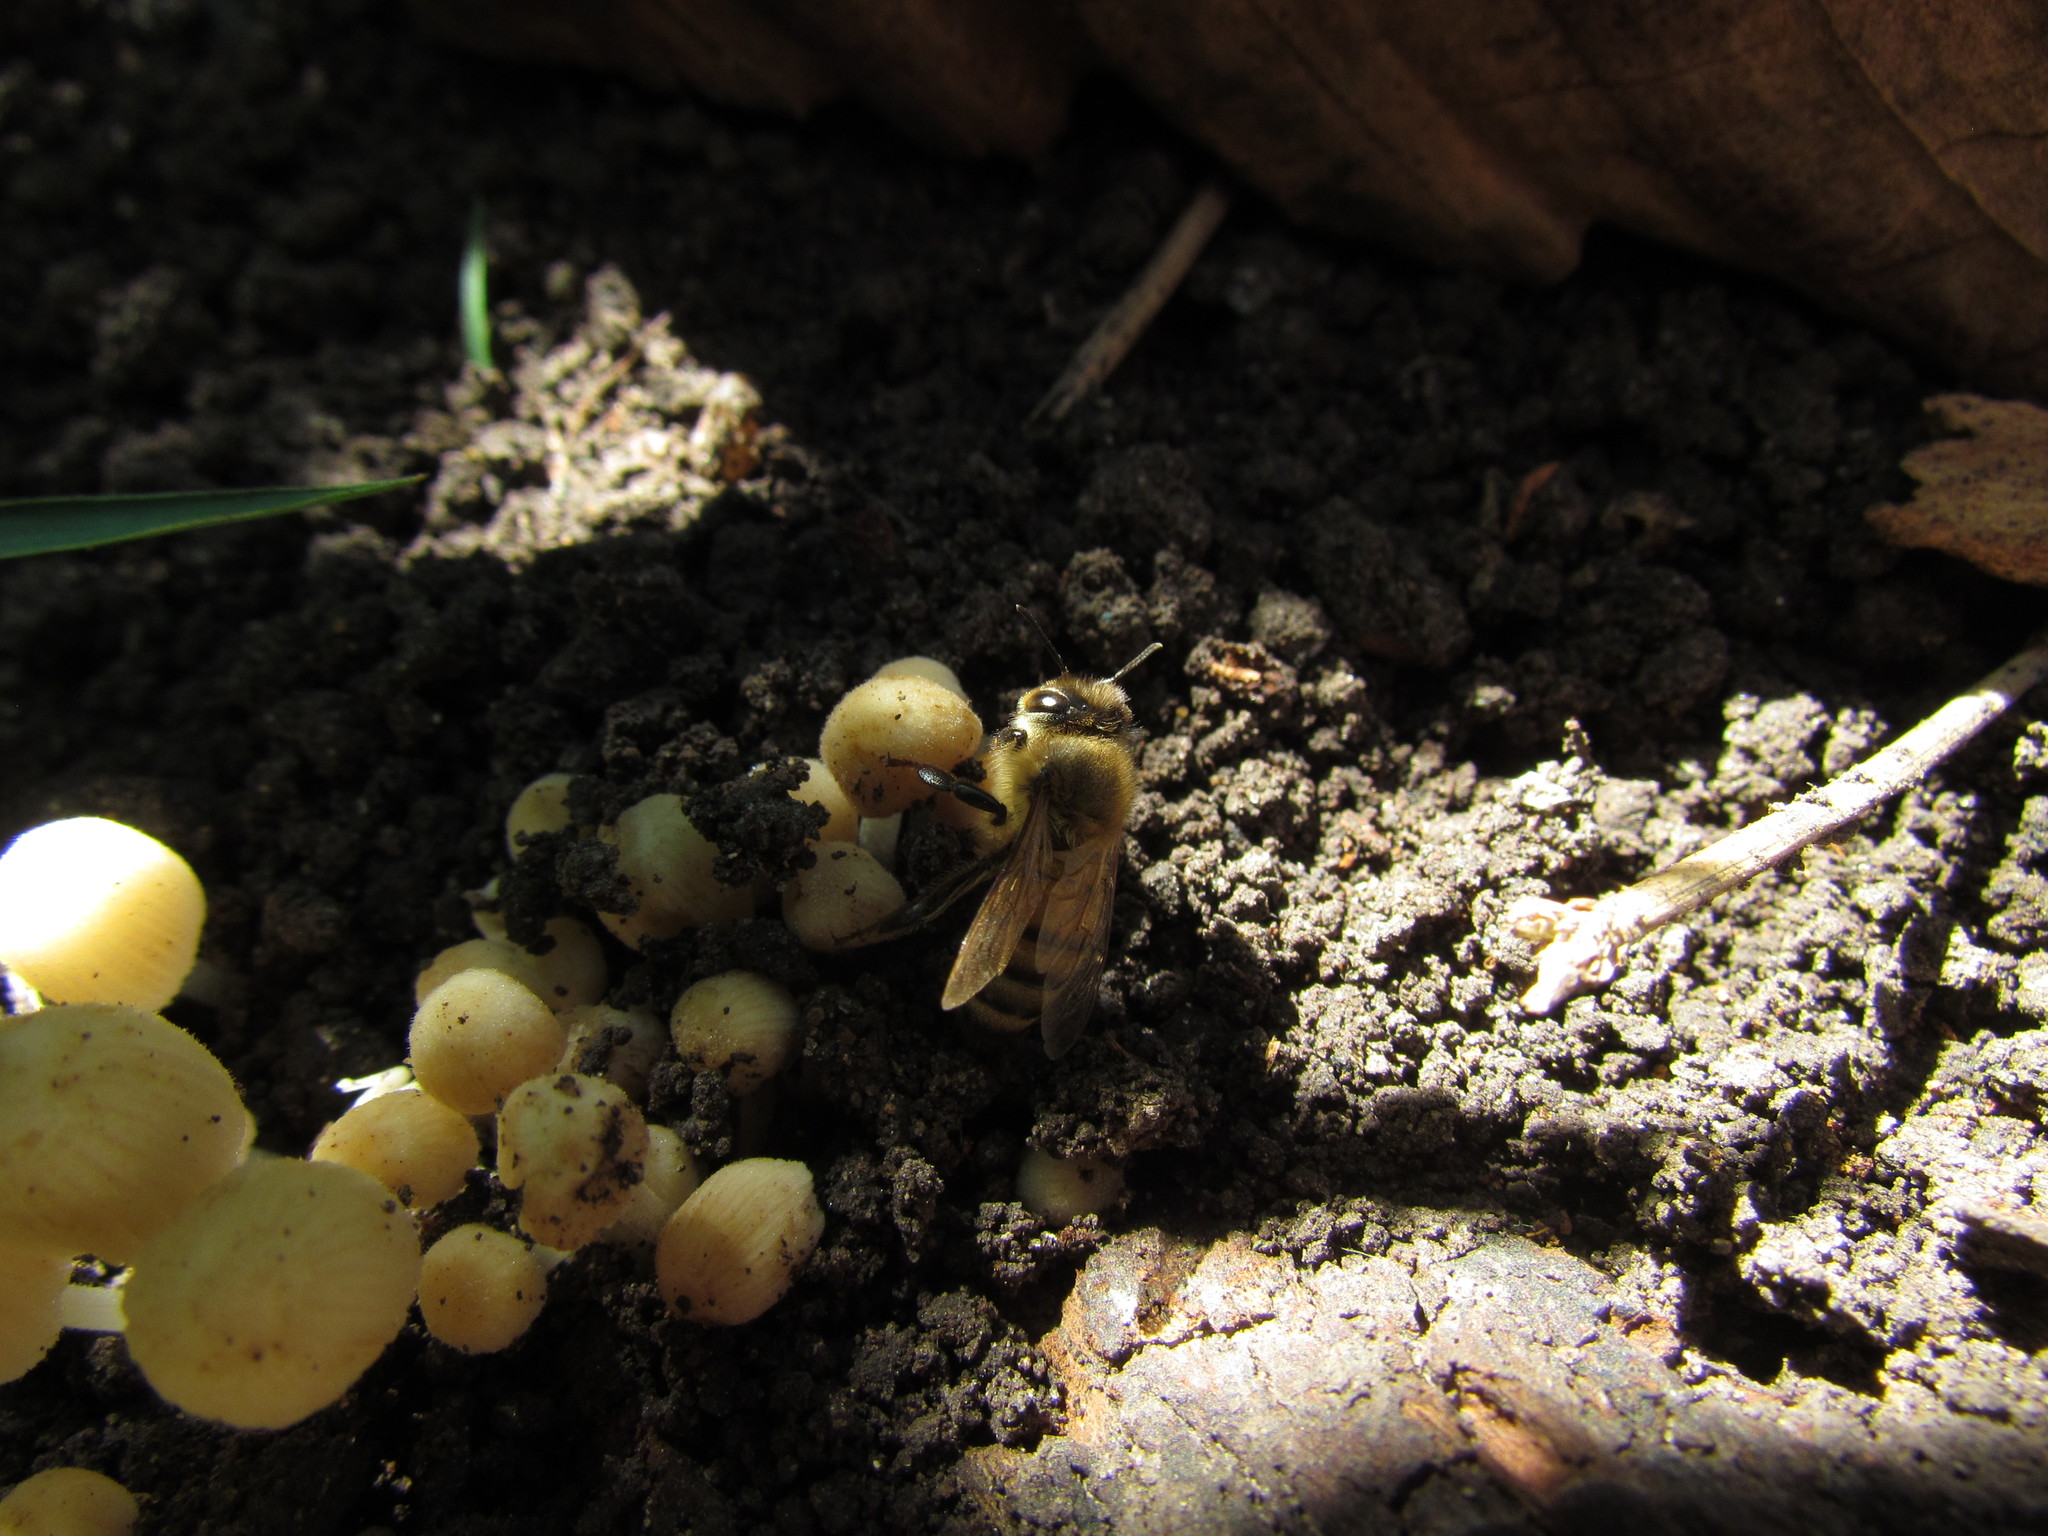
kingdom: Animalia
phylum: Arthropoda
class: Insecta
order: Hymenoptera
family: Apidae
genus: Apis
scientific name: Apis mellifera
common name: Honey bee
